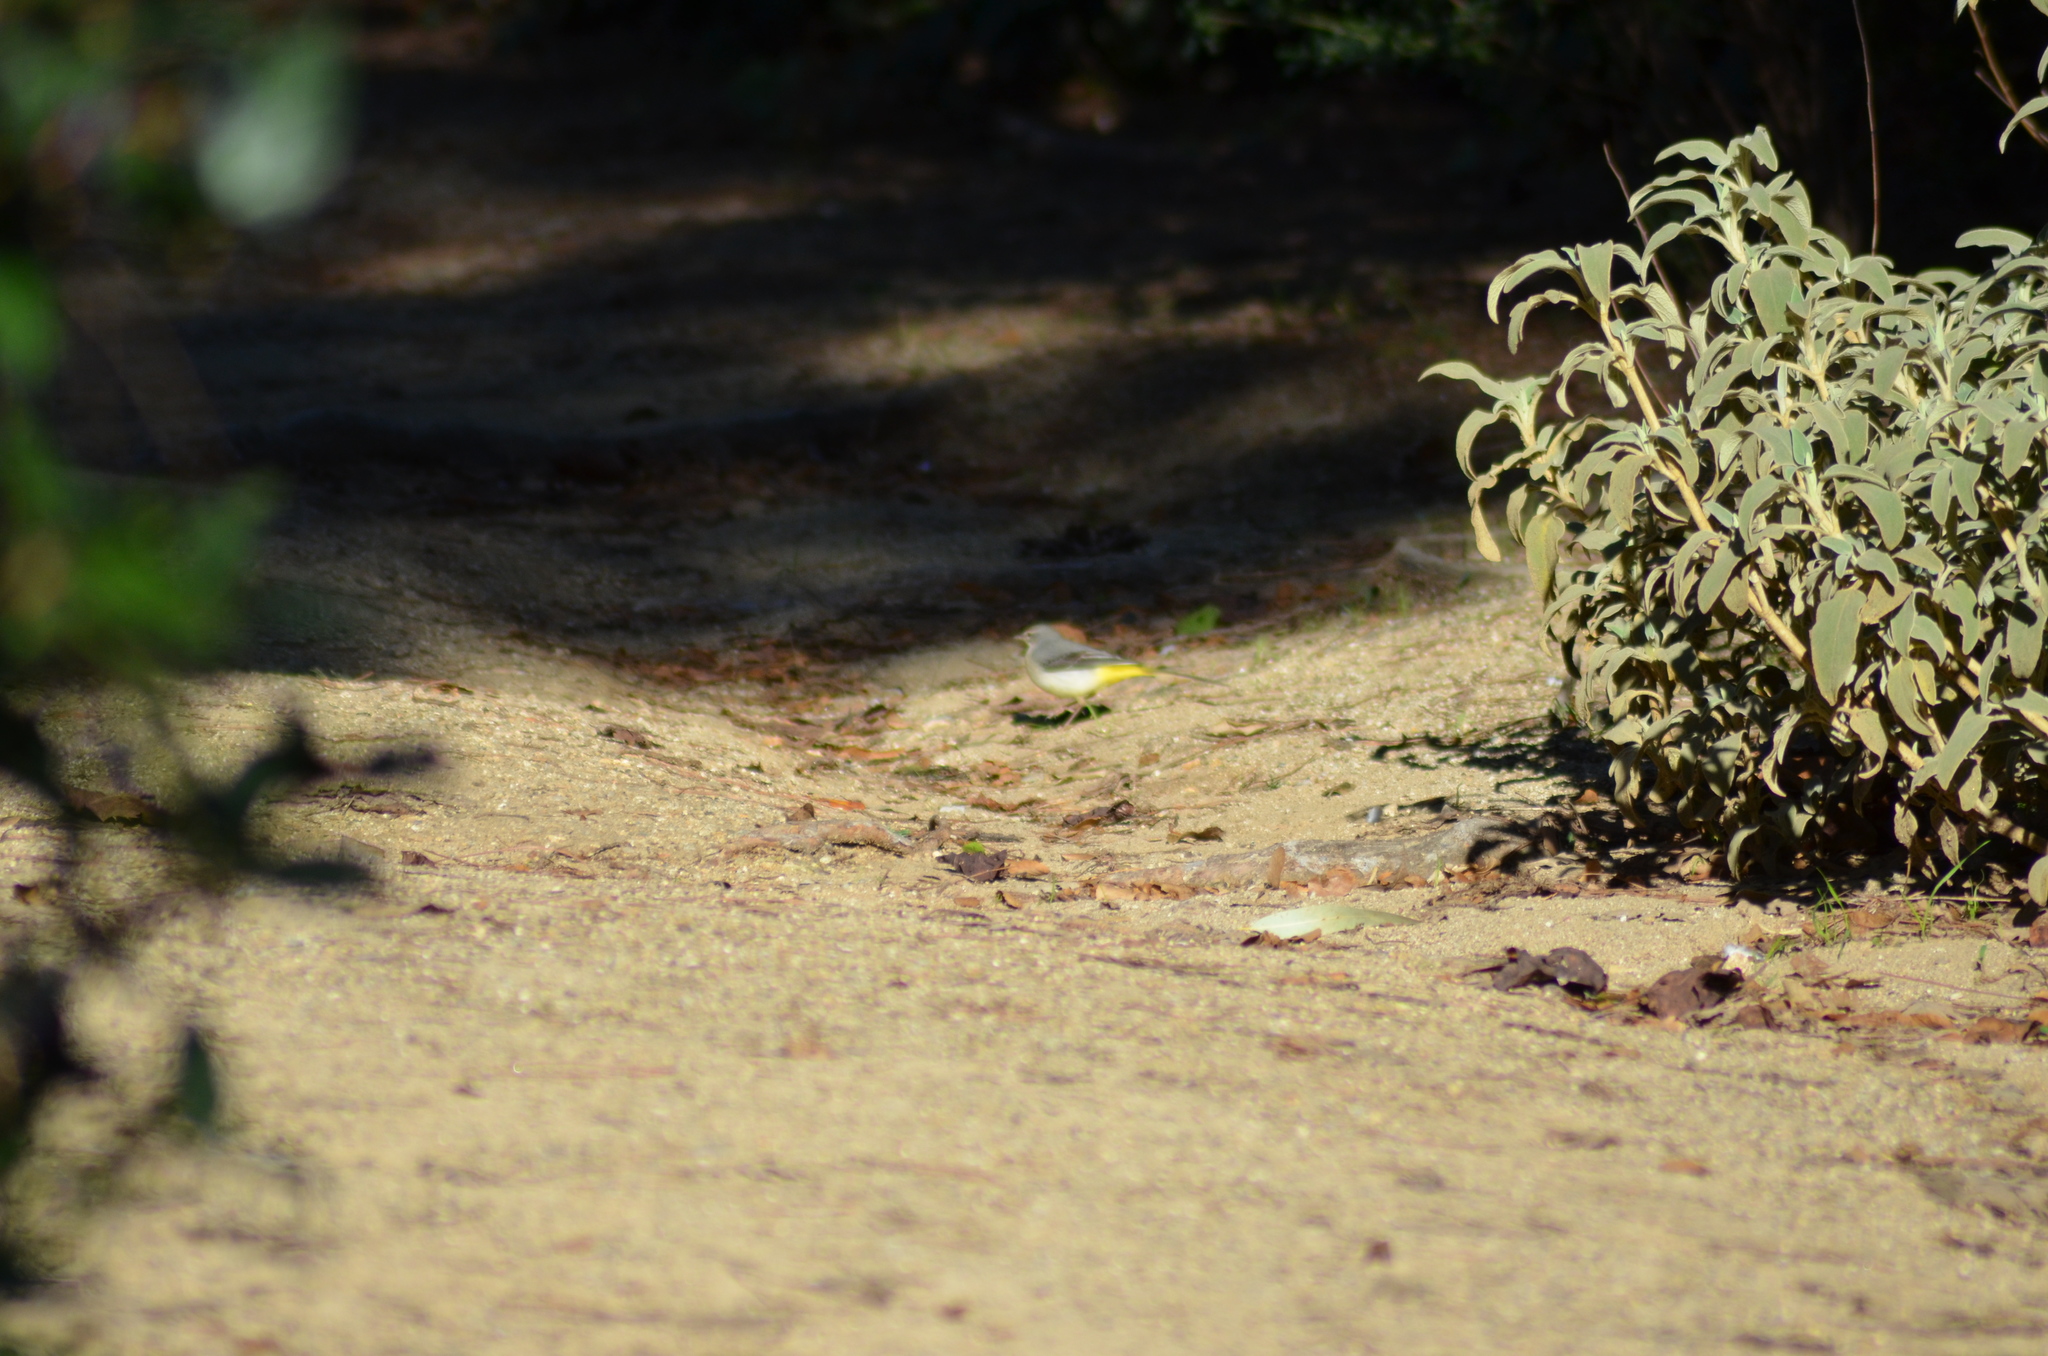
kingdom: Animalia
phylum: Chordata
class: Aves
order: Passeriformes
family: Motacillidae
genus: Motacilla
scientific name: Motacilla cinerea
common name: Grey wagtail
